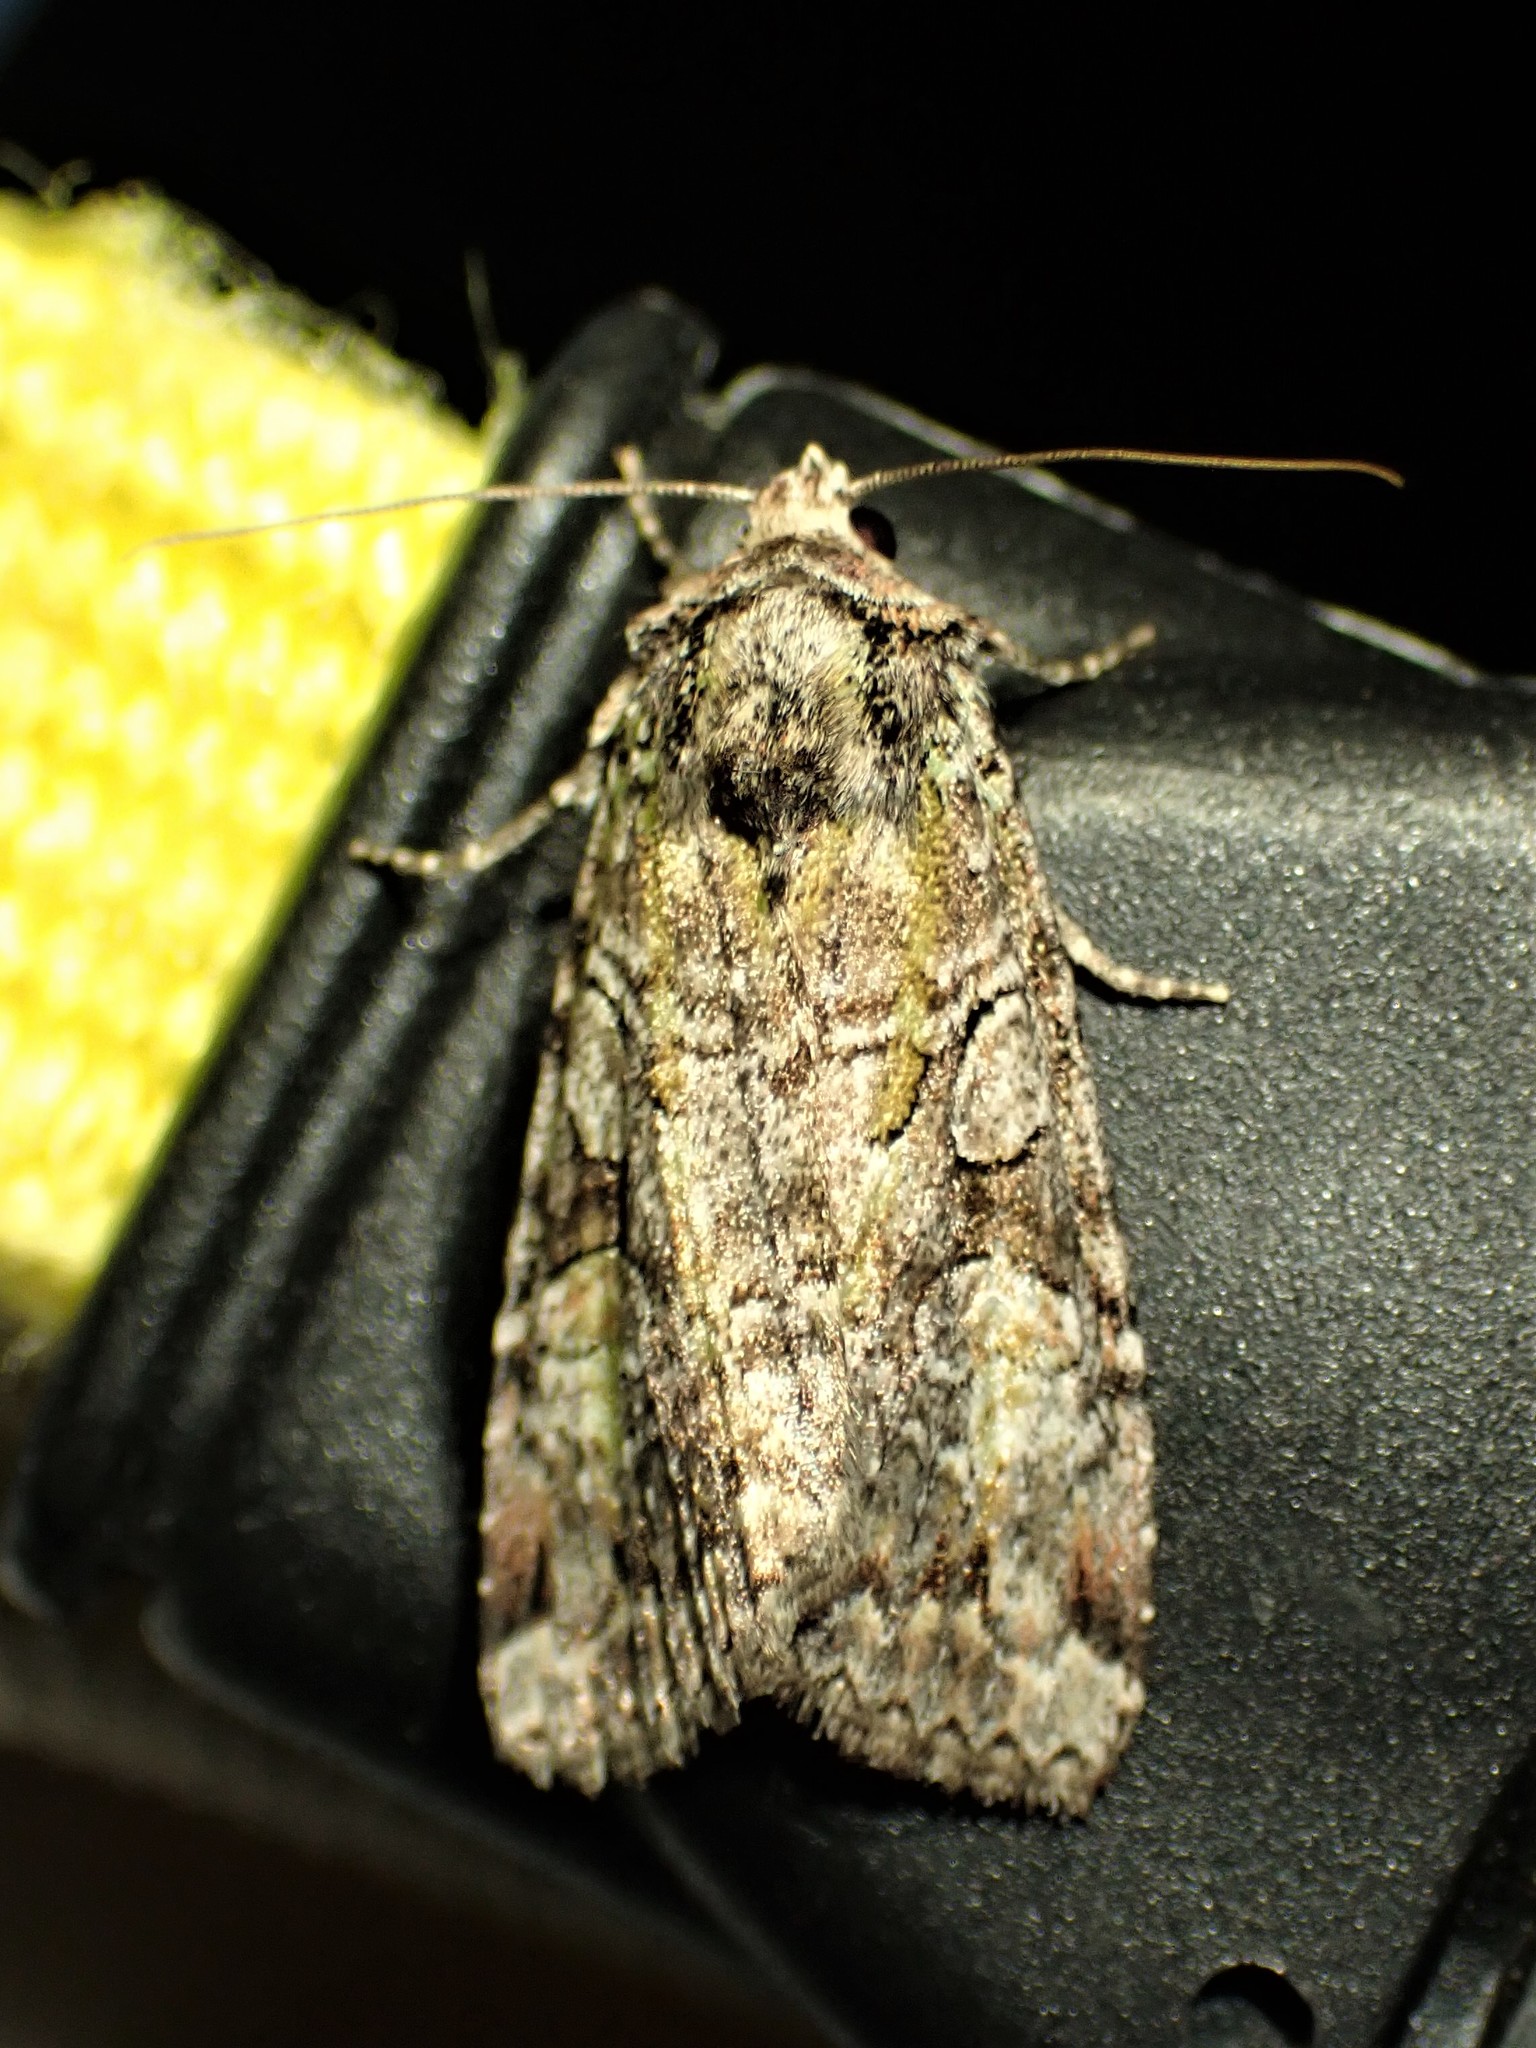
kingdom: Animalia
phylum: Arthropoda
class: Insecta
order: Lepidoptera
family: Noctuidae
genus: Anaplectoides
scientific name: Anaplectoides prasina
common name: Green arches
